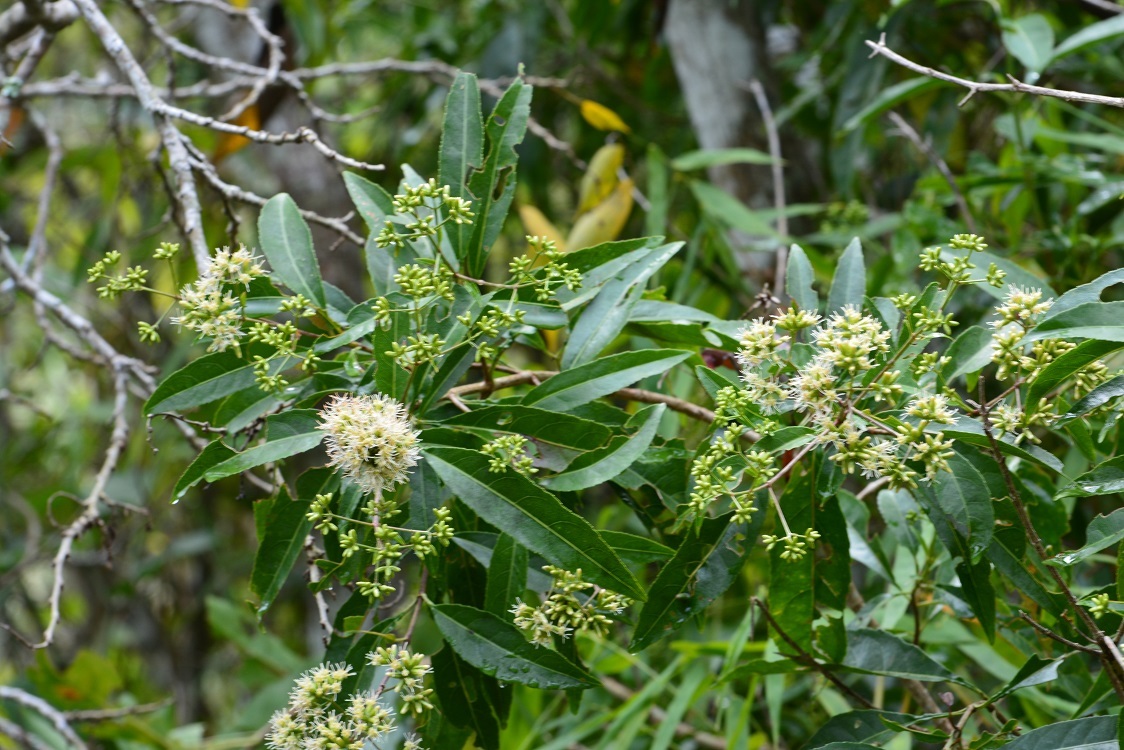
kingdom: Plantae
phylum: Tracheophyta
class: Magnoliopsida
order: Asterales
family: Asteraceae
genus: Critonia
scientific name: Critonia hospitalis
